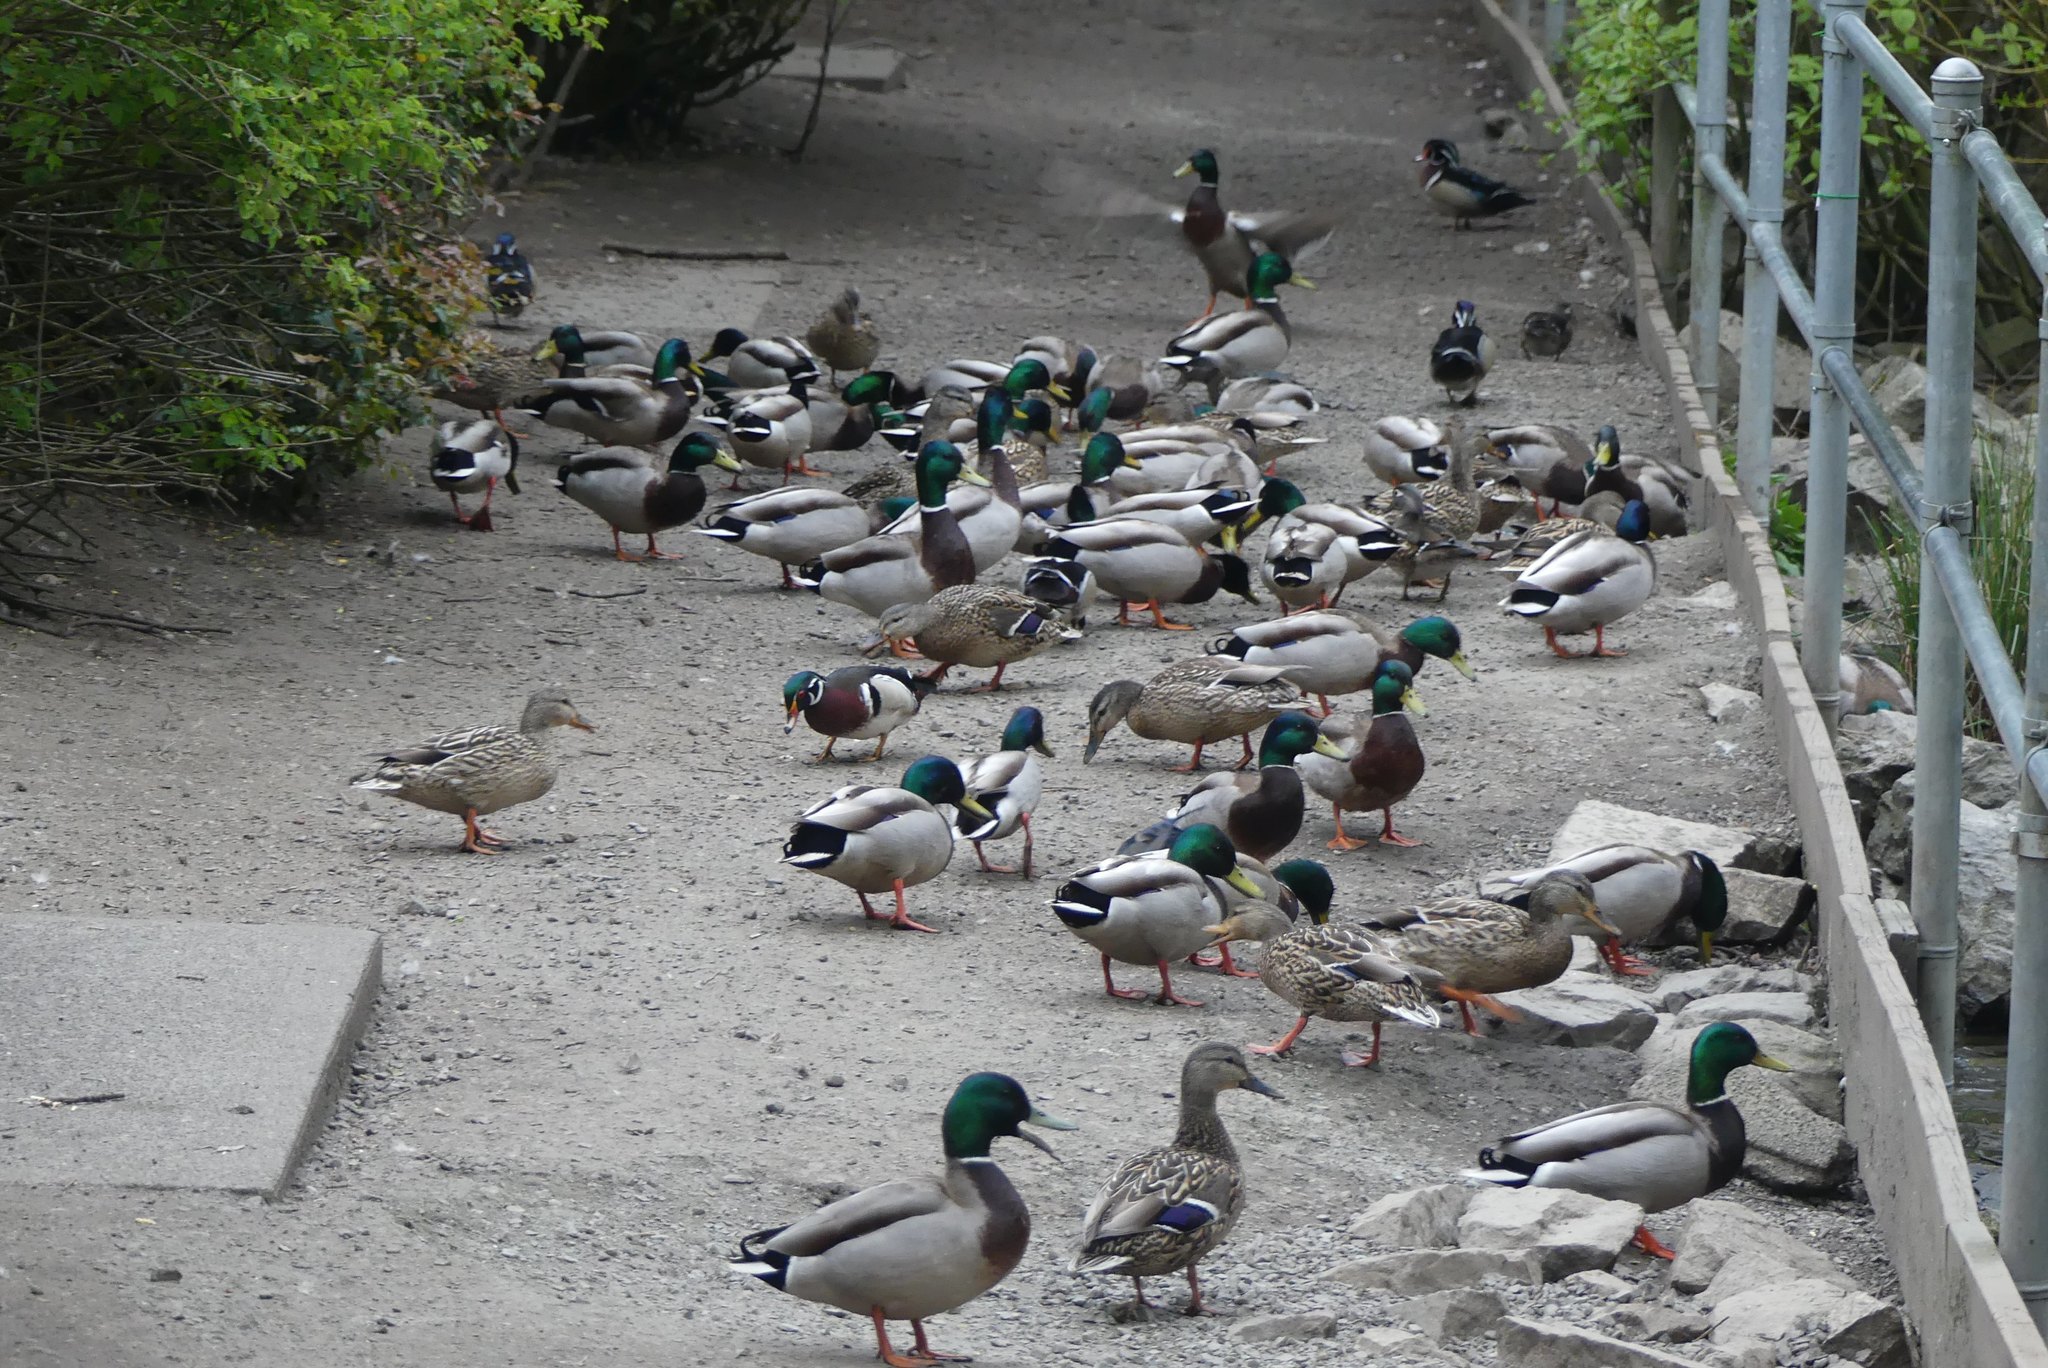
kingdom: Animalia
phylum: Chordata
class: Aves
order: Anseriformes
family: Anatidae
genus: Anas
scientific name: Anas platyrhynchos
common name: Mallard
